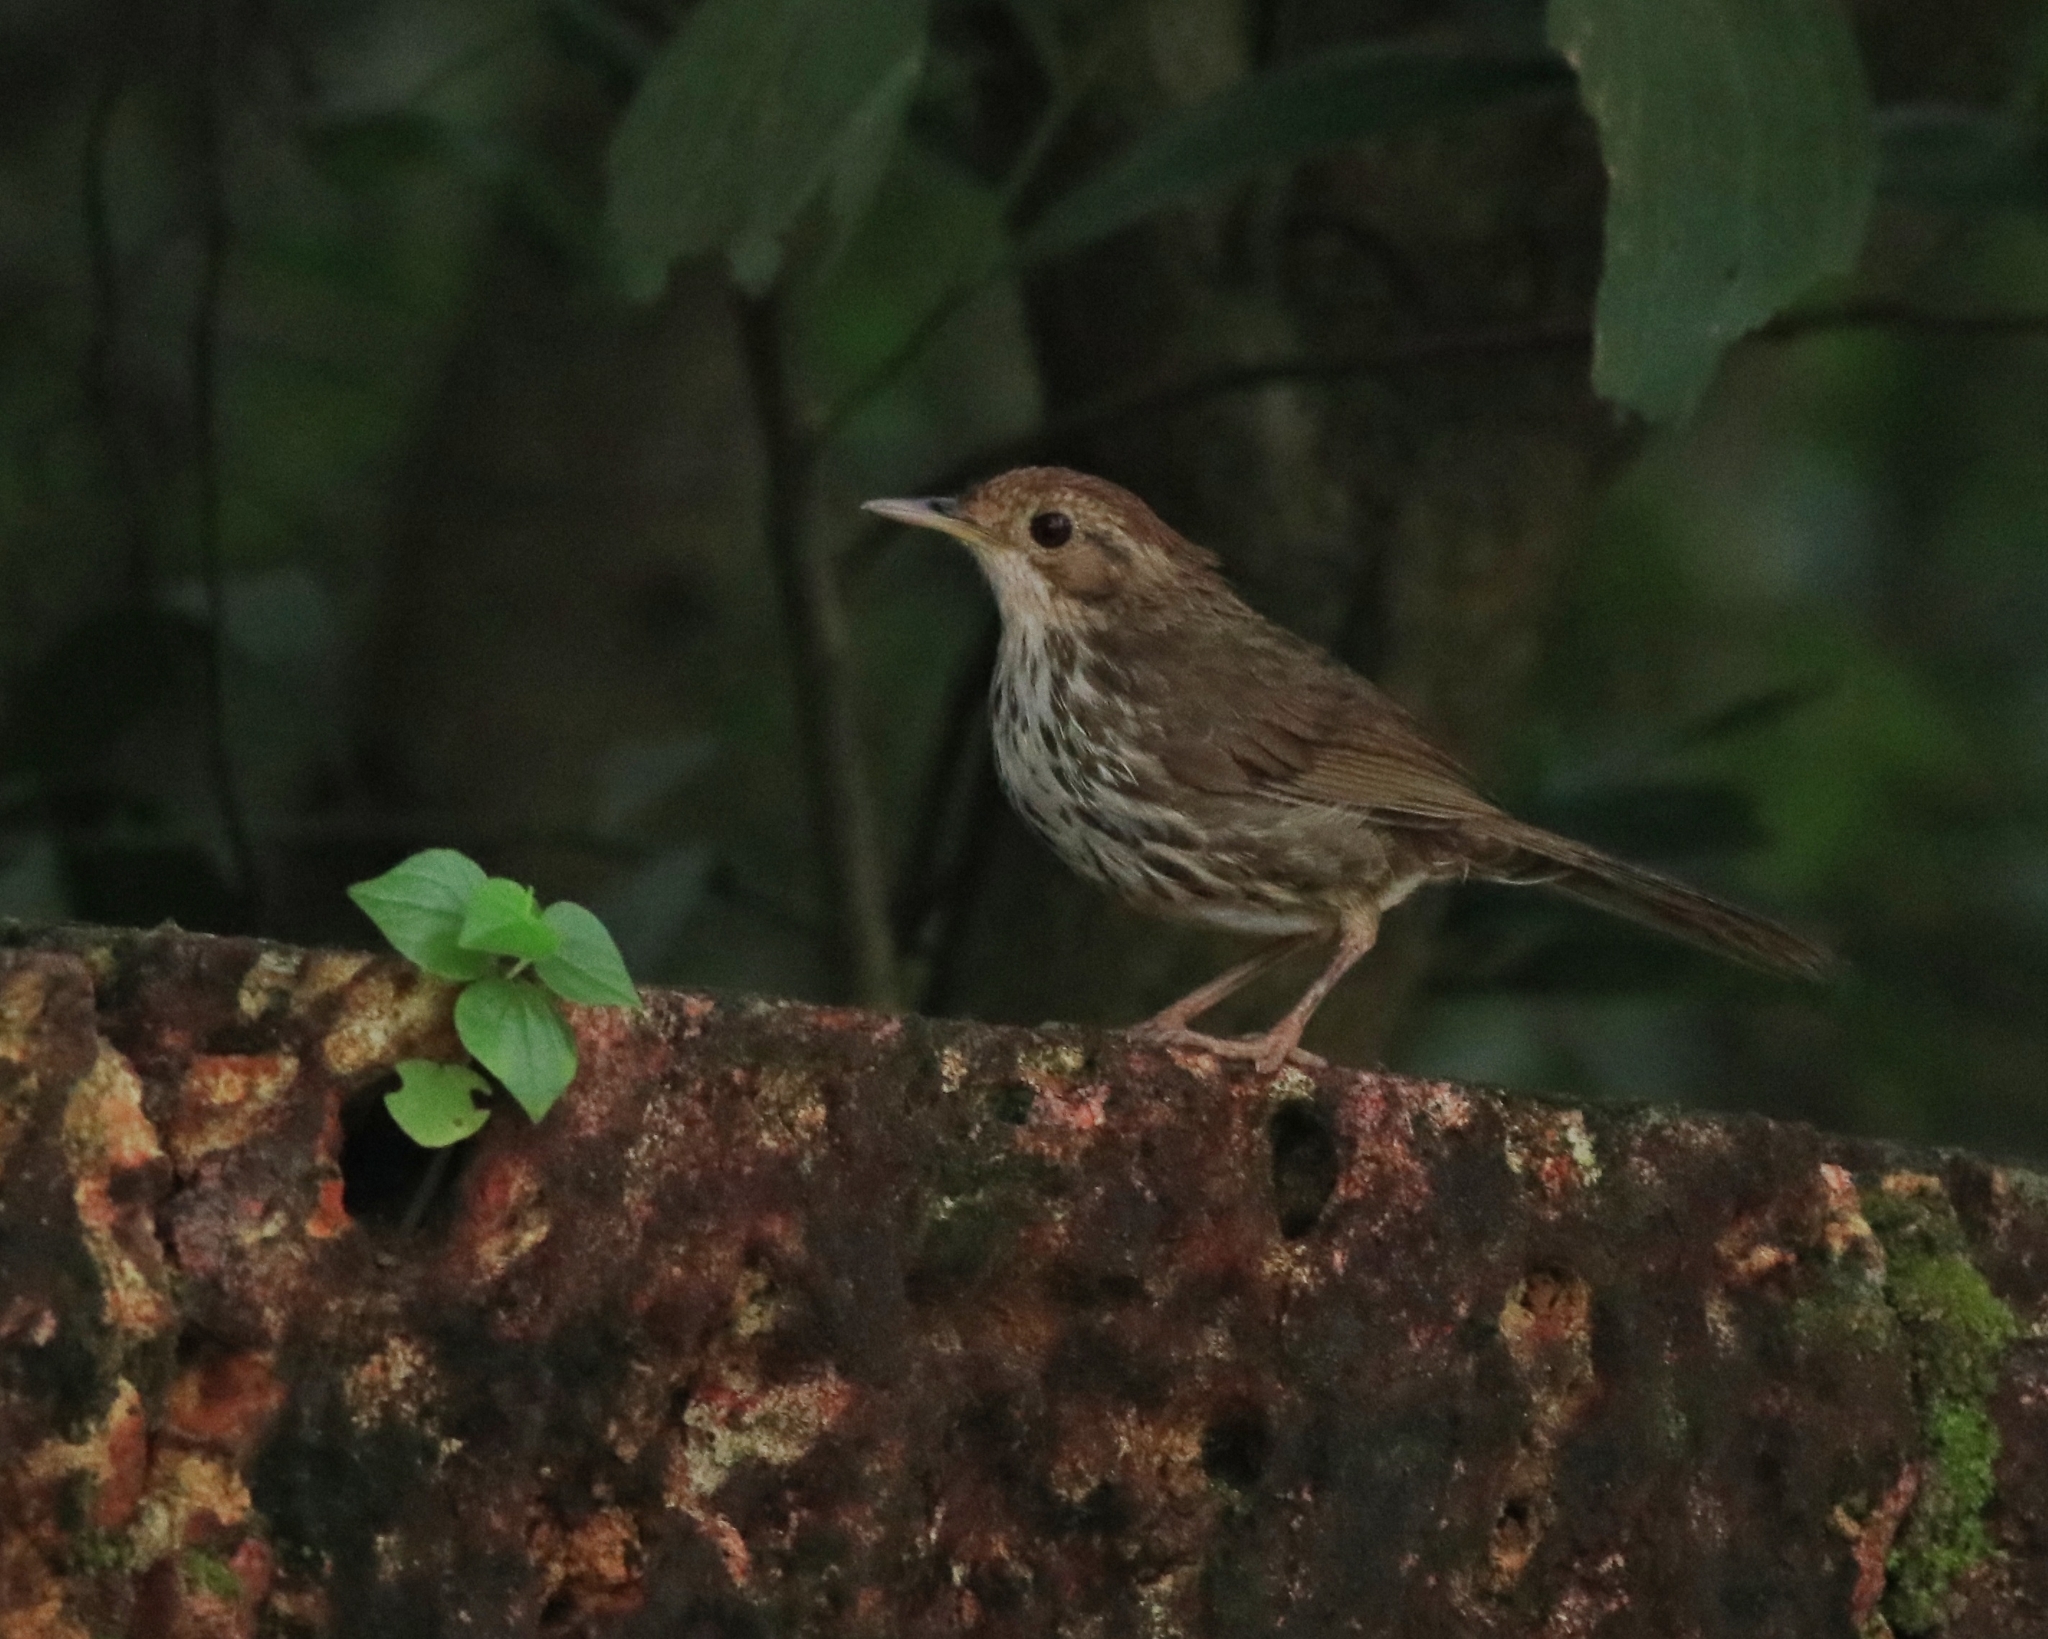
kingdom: Animalia
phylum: Chordata
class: Aves
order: Passeriformes
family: Pellorneidae
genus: Pellorneum
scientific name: Pellorneum ruficeps
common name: Puff-throated babbler
